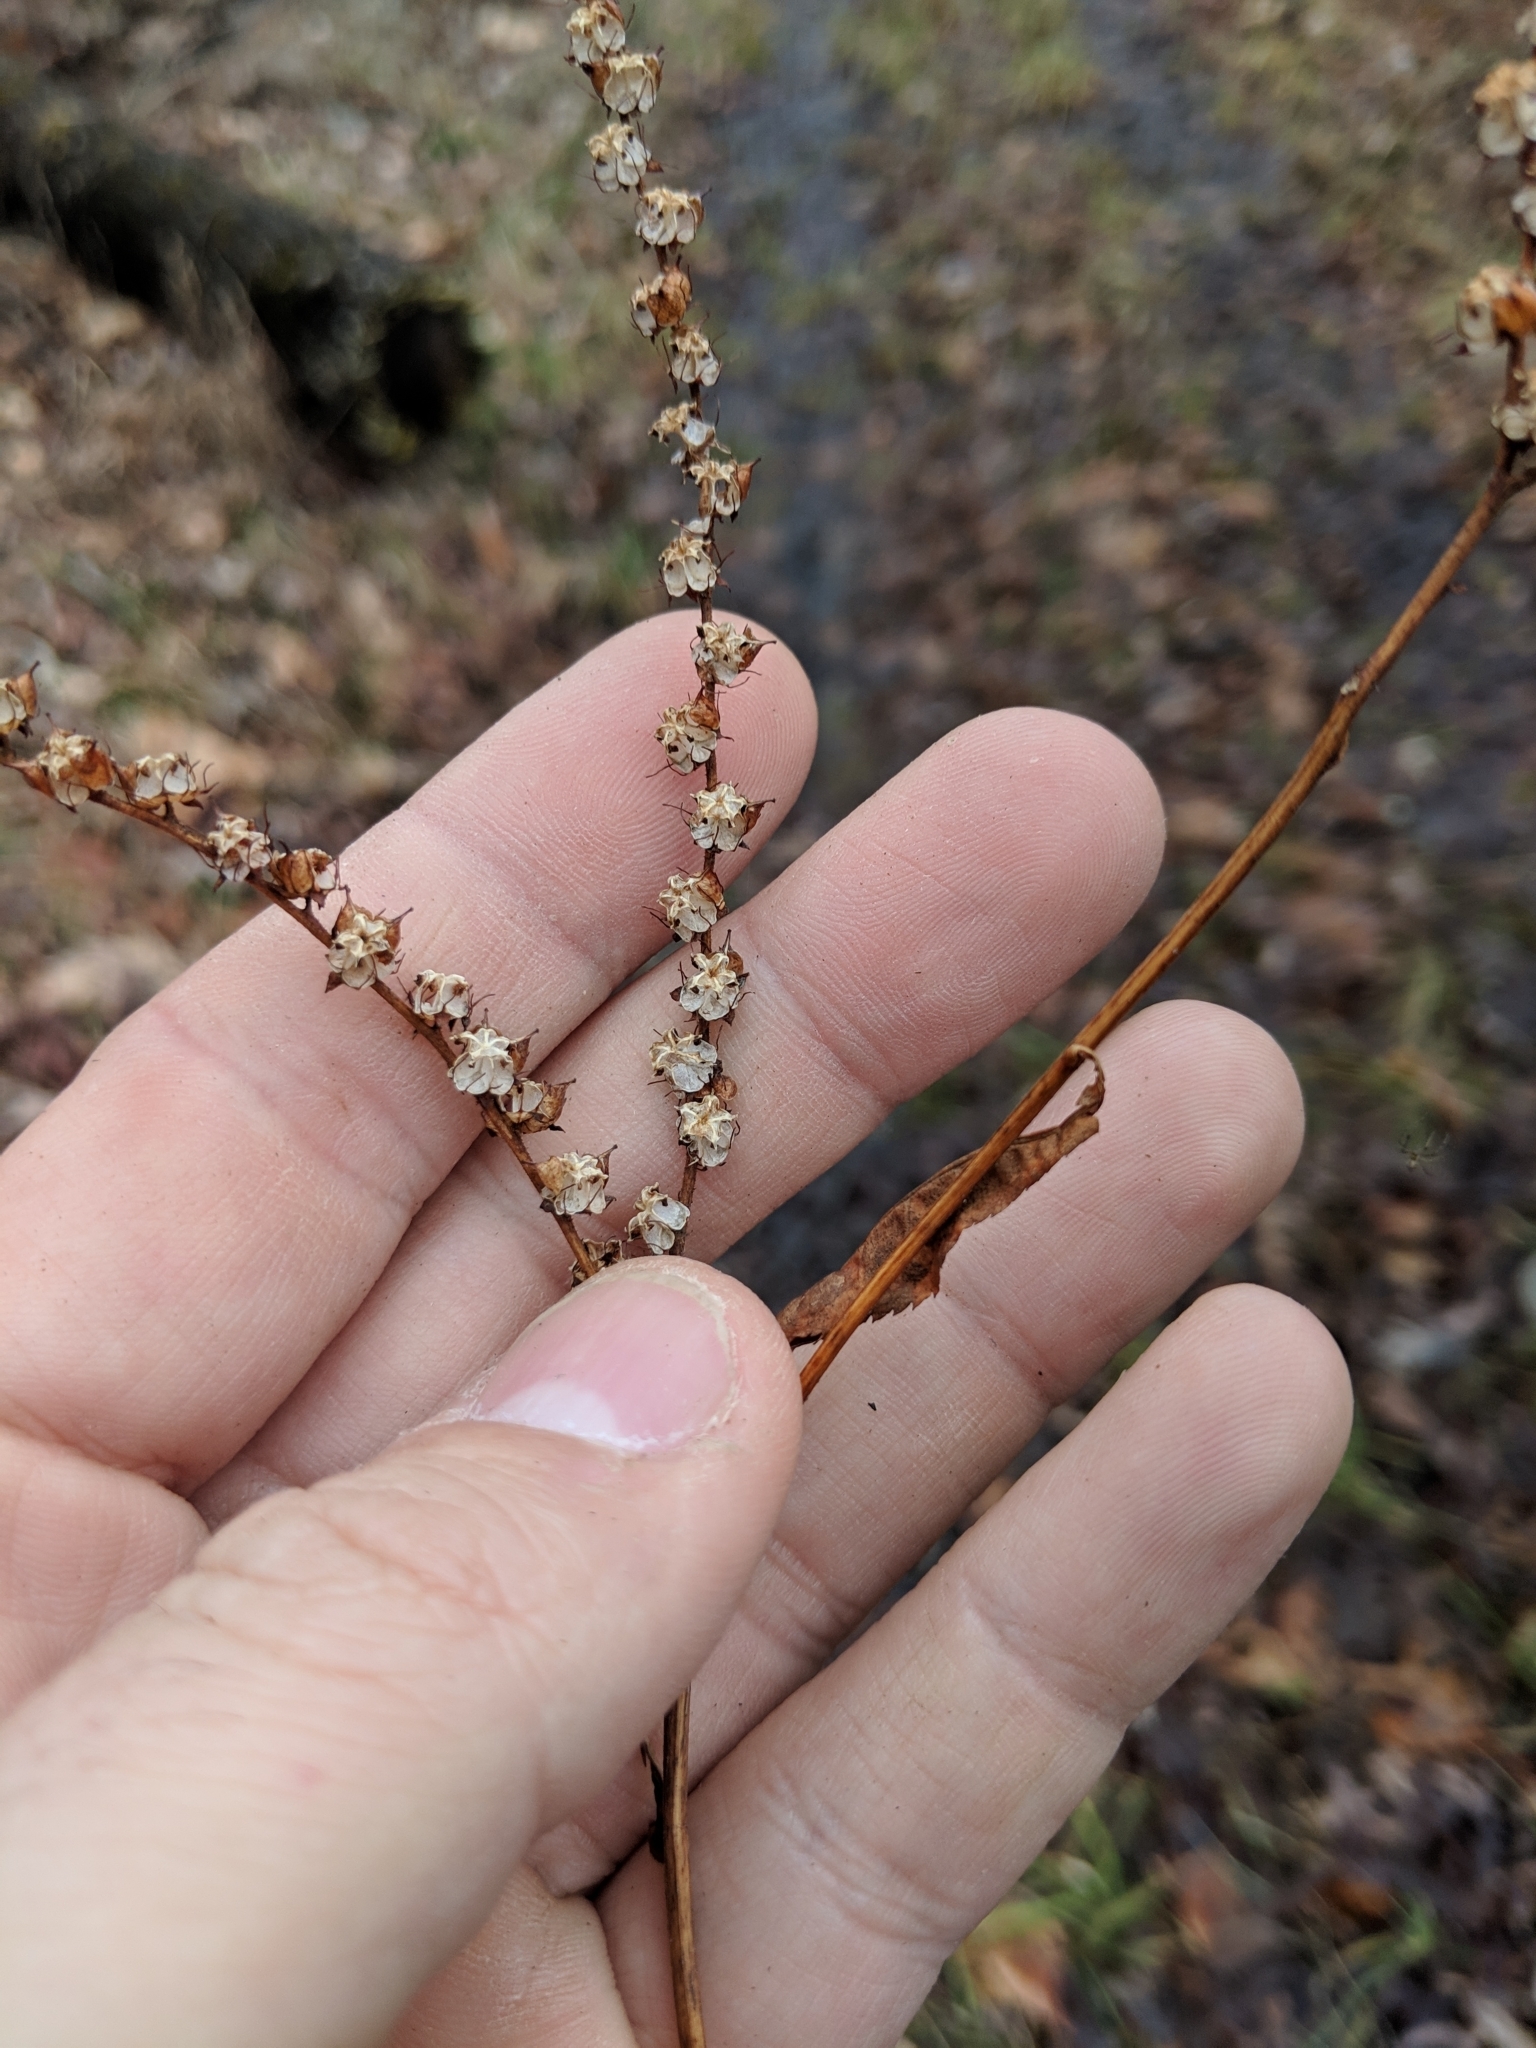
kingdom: Plantae
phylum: Tracheophyta
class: Magnoliopsida
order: Saxifragales
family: Penthoraceae
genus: Penthorum
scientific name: Penthorum sedoides
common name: Ditch stonecrop
